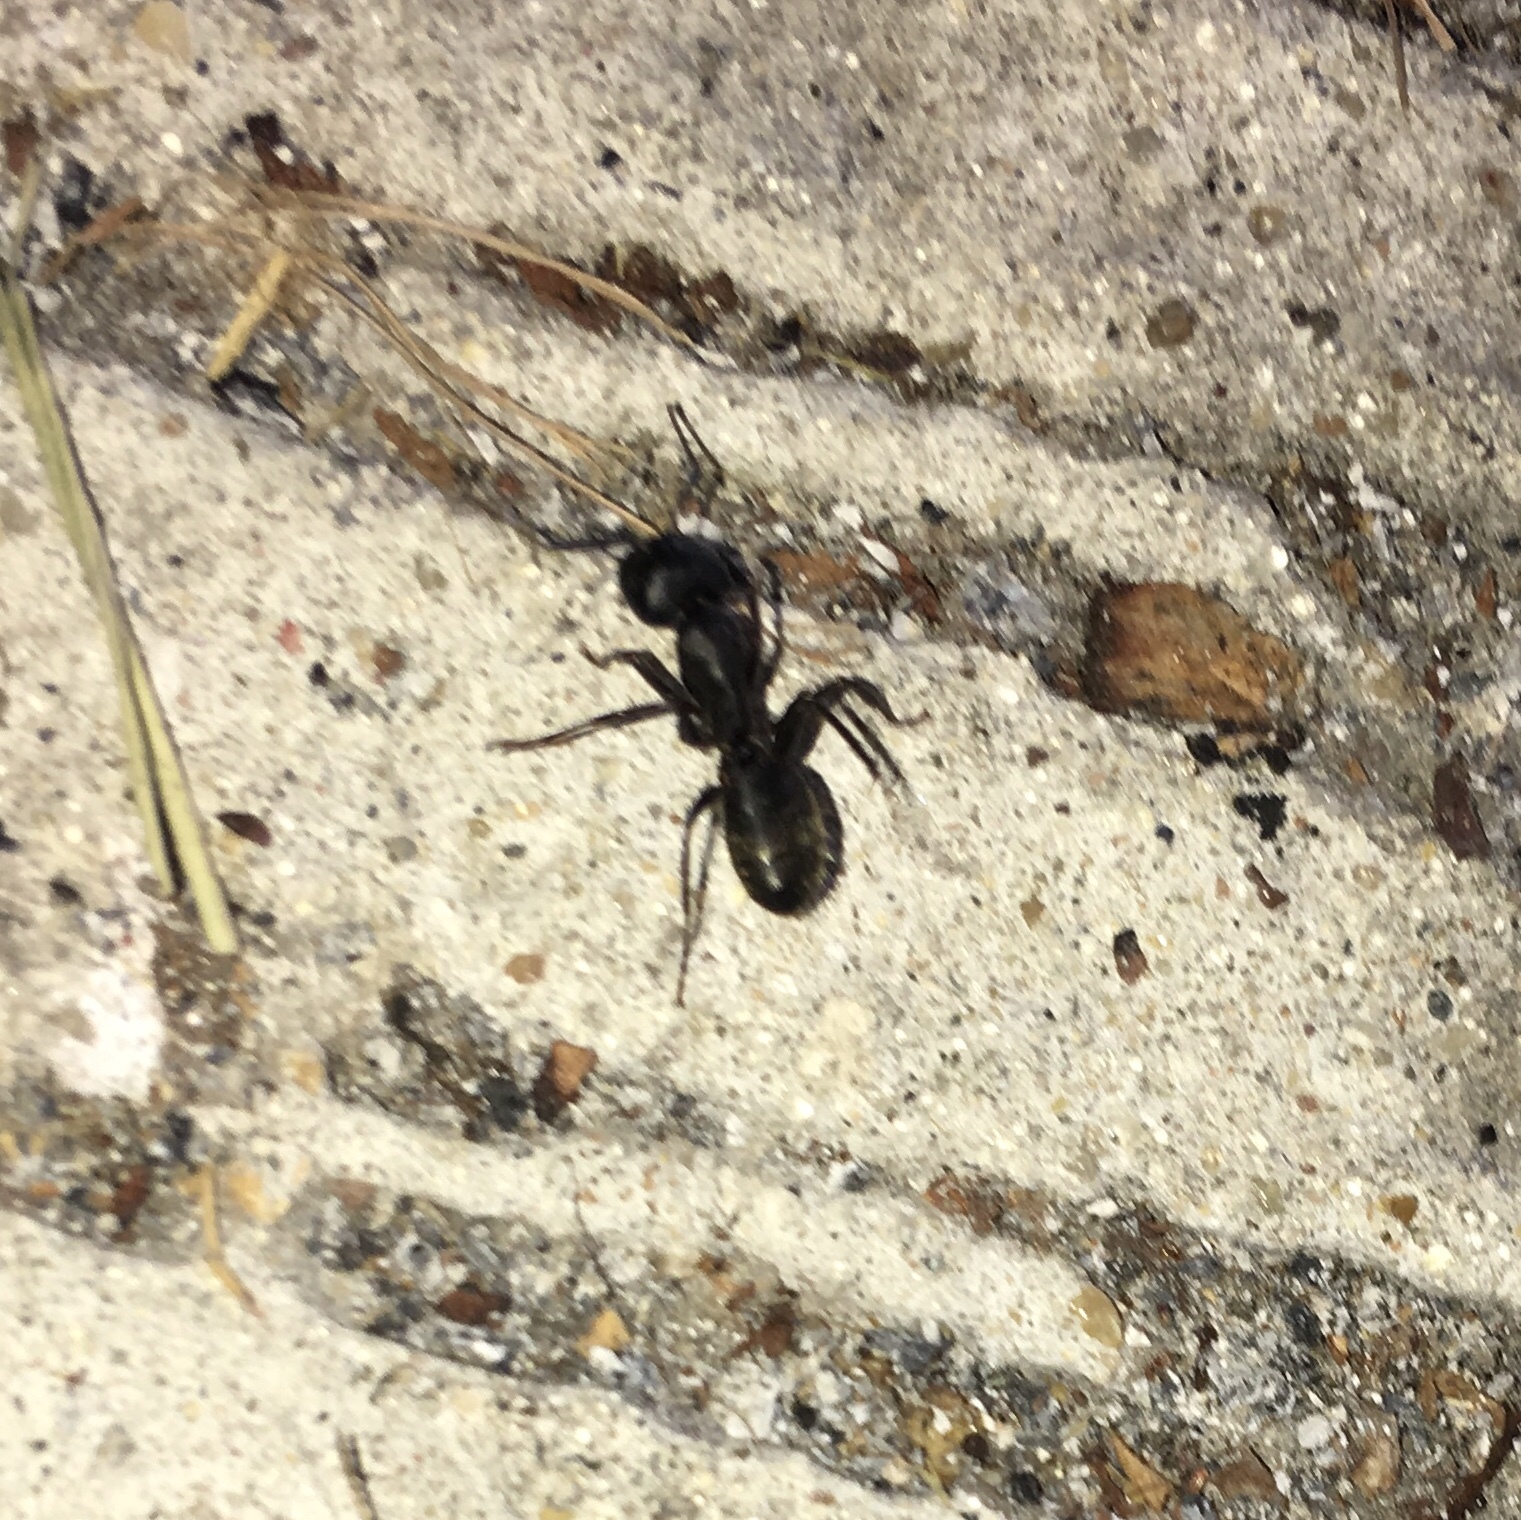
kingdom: Animalia
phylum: Arthropoda
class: Insecta
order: Hymenoptera
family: Formicidae
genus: Camponotus
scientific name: Camponotus pennsylvanicus
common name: Black carpenter ant
